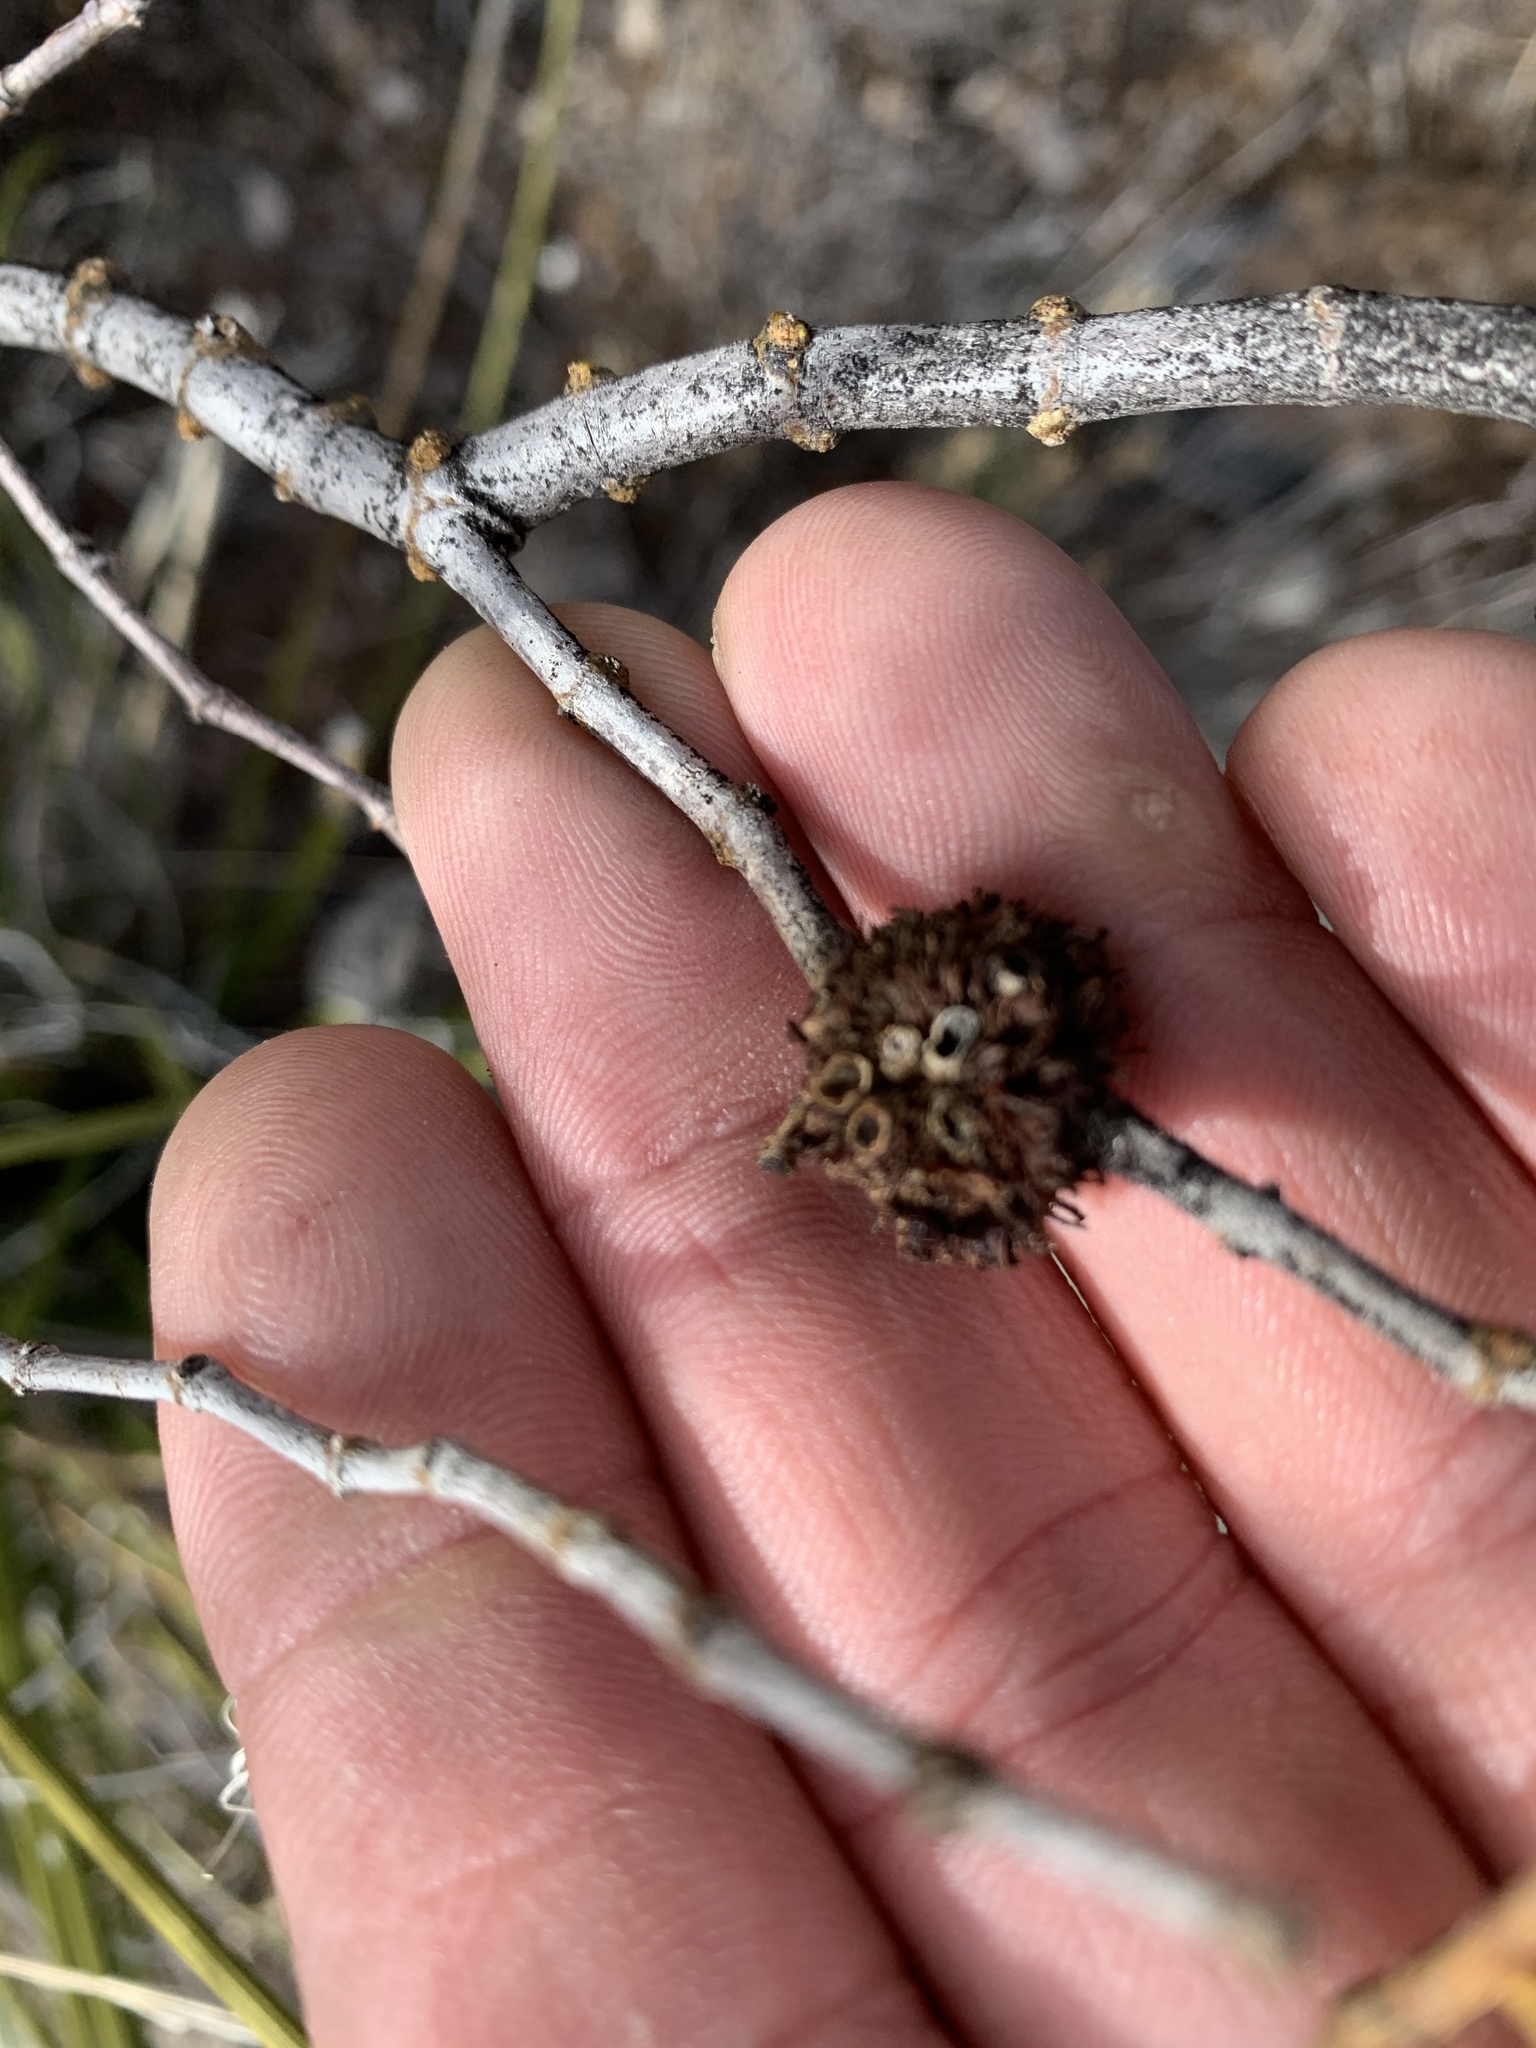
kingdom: Animalia
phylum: Arthropoda
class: Insecta
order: Diptera
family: Cecidomyiidae
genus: Asphondylia
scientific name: Asphondylia auripila
